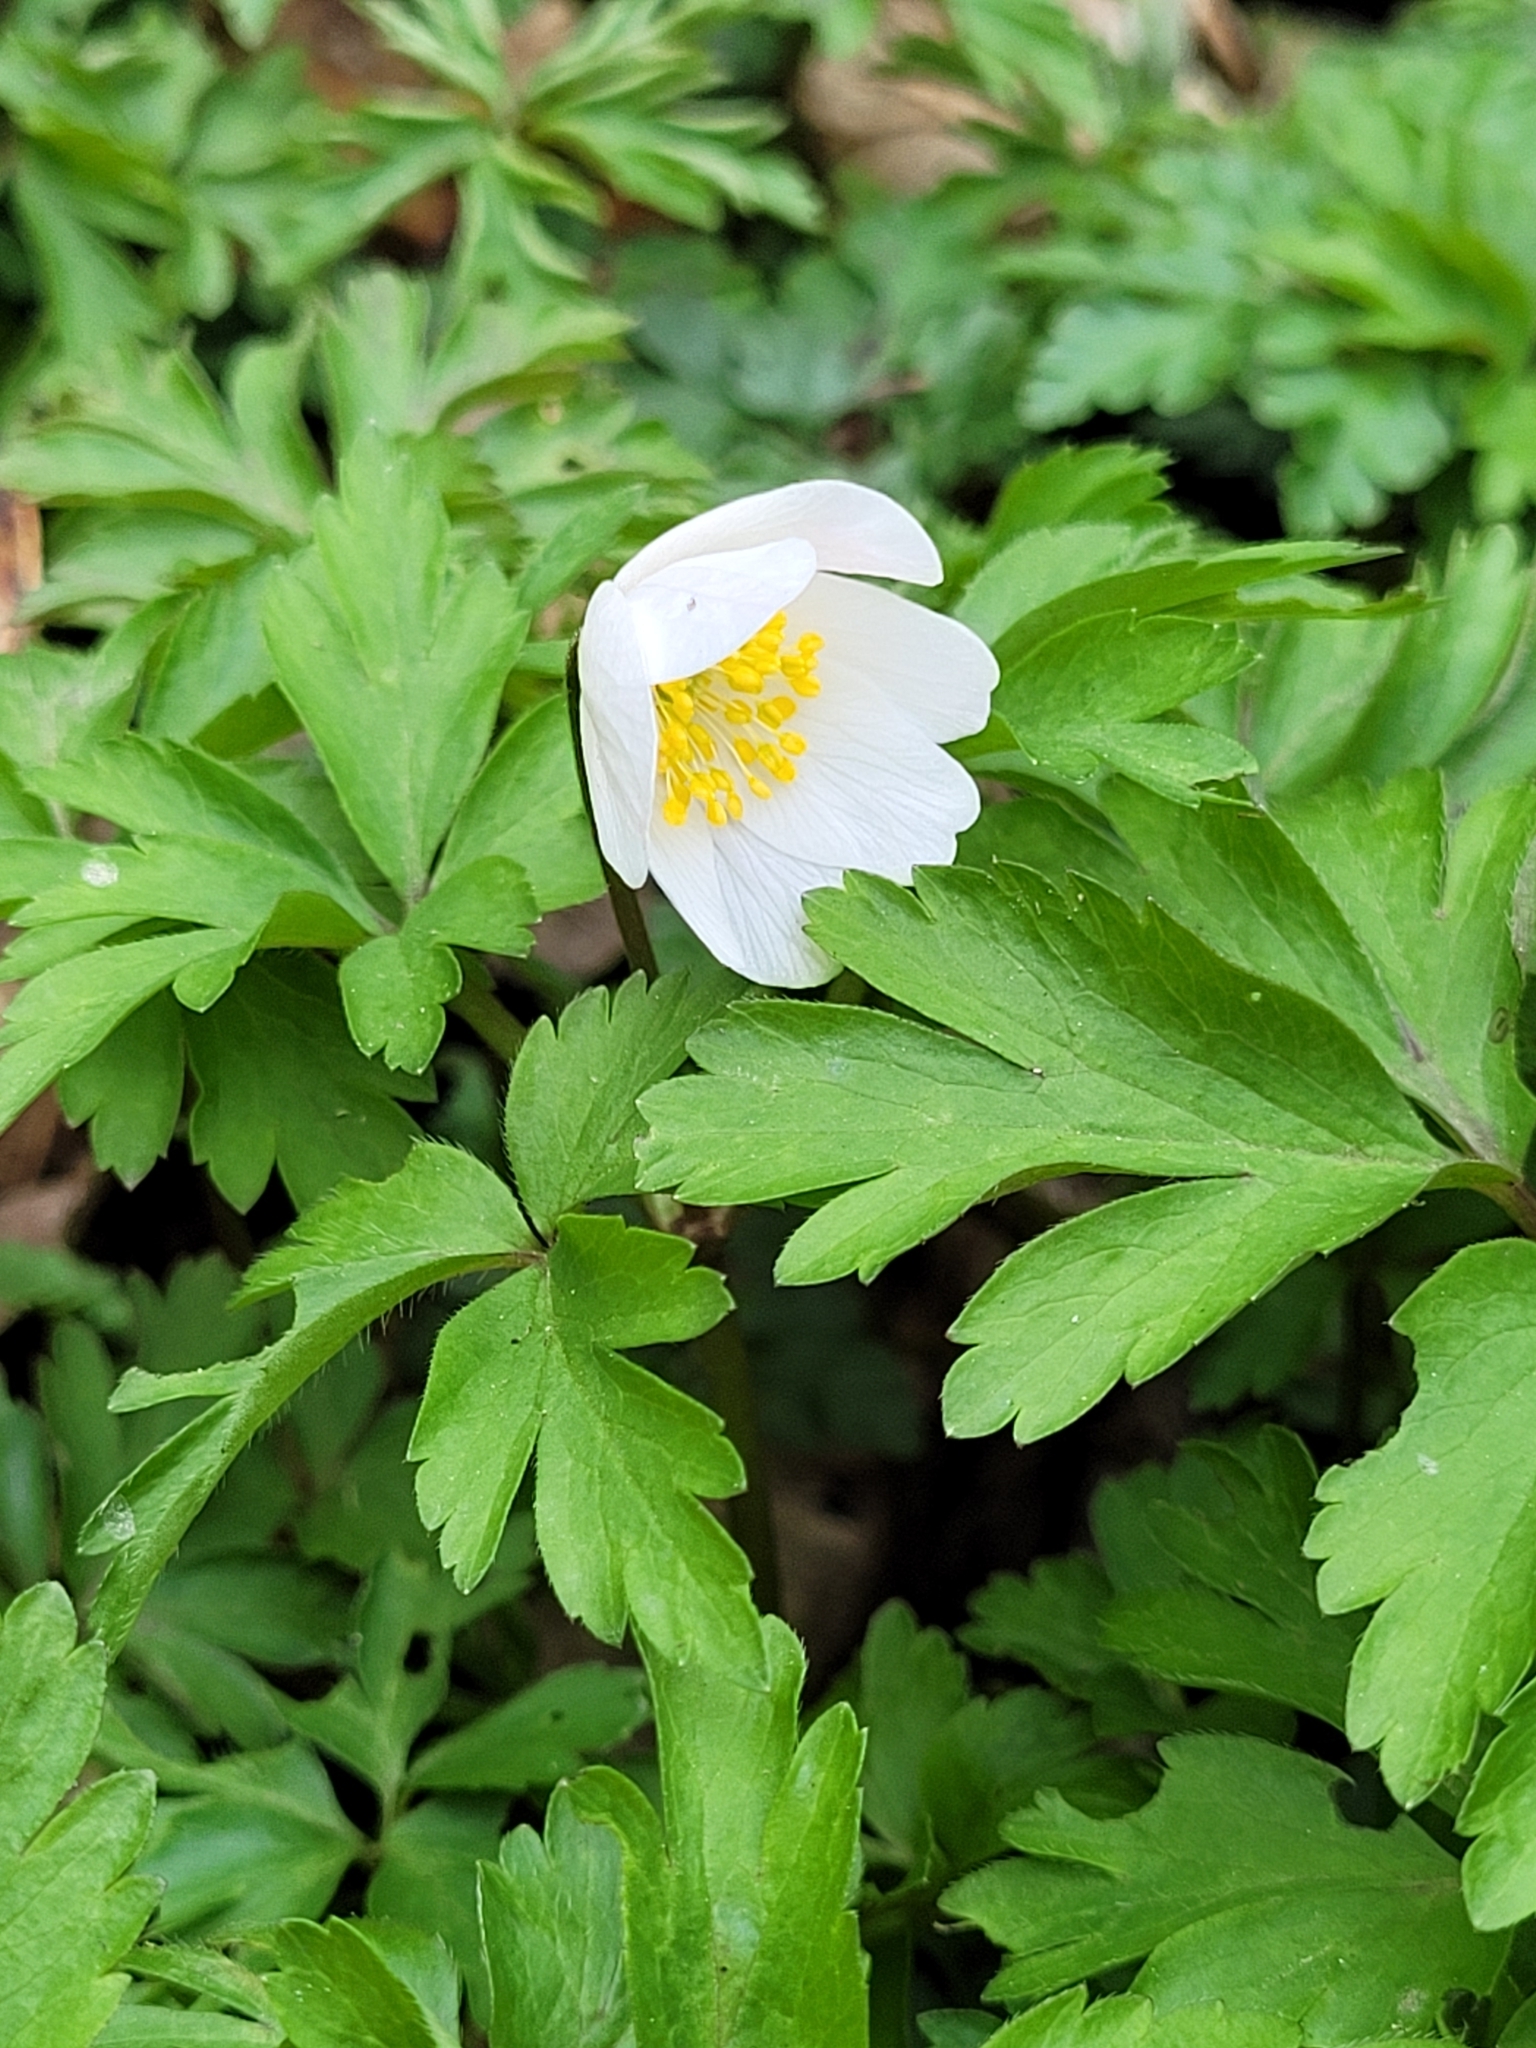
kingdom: Plantae
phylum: Tracheophyta
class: Magnoliopsida
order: Ranunculales
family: Ranunculaceae
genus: Anemone
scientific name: Anemone nemorosa
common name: Wood anemone
